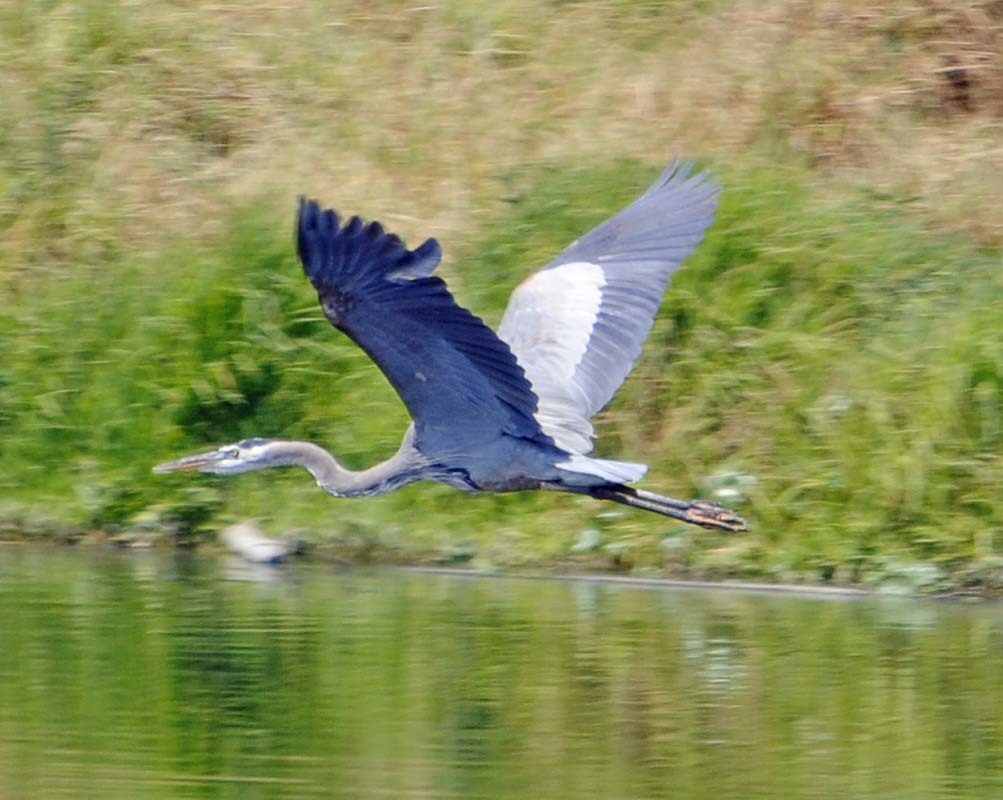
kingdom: Animalia
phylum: Chordata
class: Aves
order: Pelecaniformes
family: Ardeidae
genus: Ardea
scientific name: Ardea herodias
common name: Great blue heron
